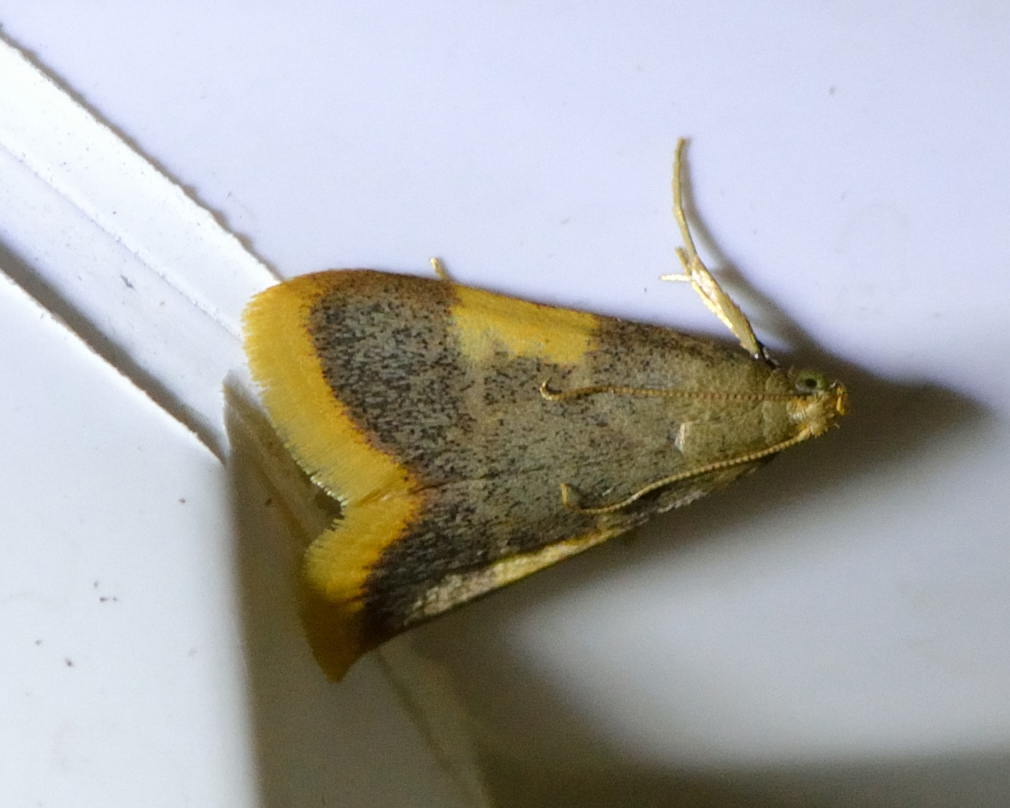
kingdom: Animalia
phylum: Arthropoda
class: Insecta
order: Lepidoptera
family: Pyralidae
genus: Hypsopygia
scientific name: Hypsopygia costalis
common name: Gold triangle
